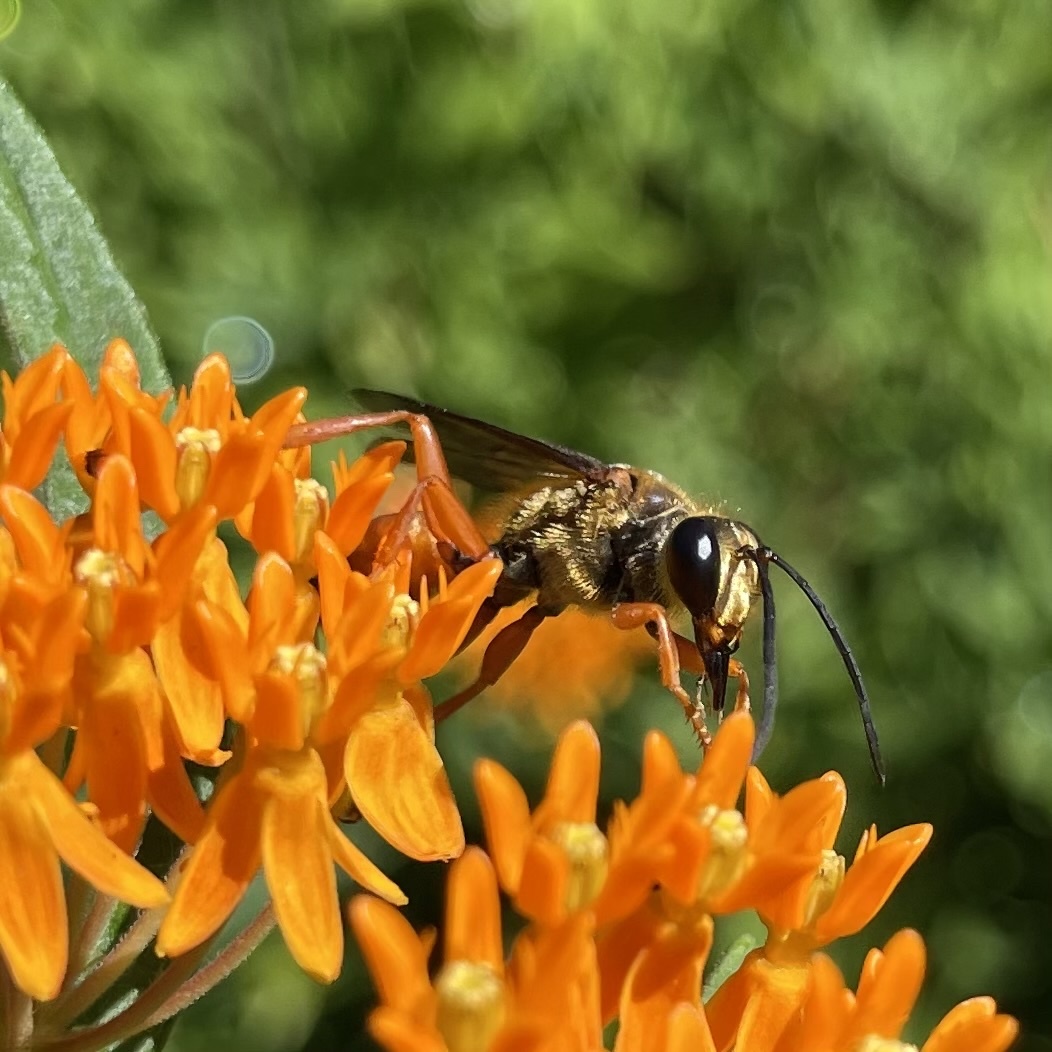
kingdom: Animalia
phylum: Arthropoda
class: Insecta
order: Hymenoptera
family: Sphecidae
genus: Sphex
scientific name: Sphex ichneumoneus
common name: Great golden digger wasp
